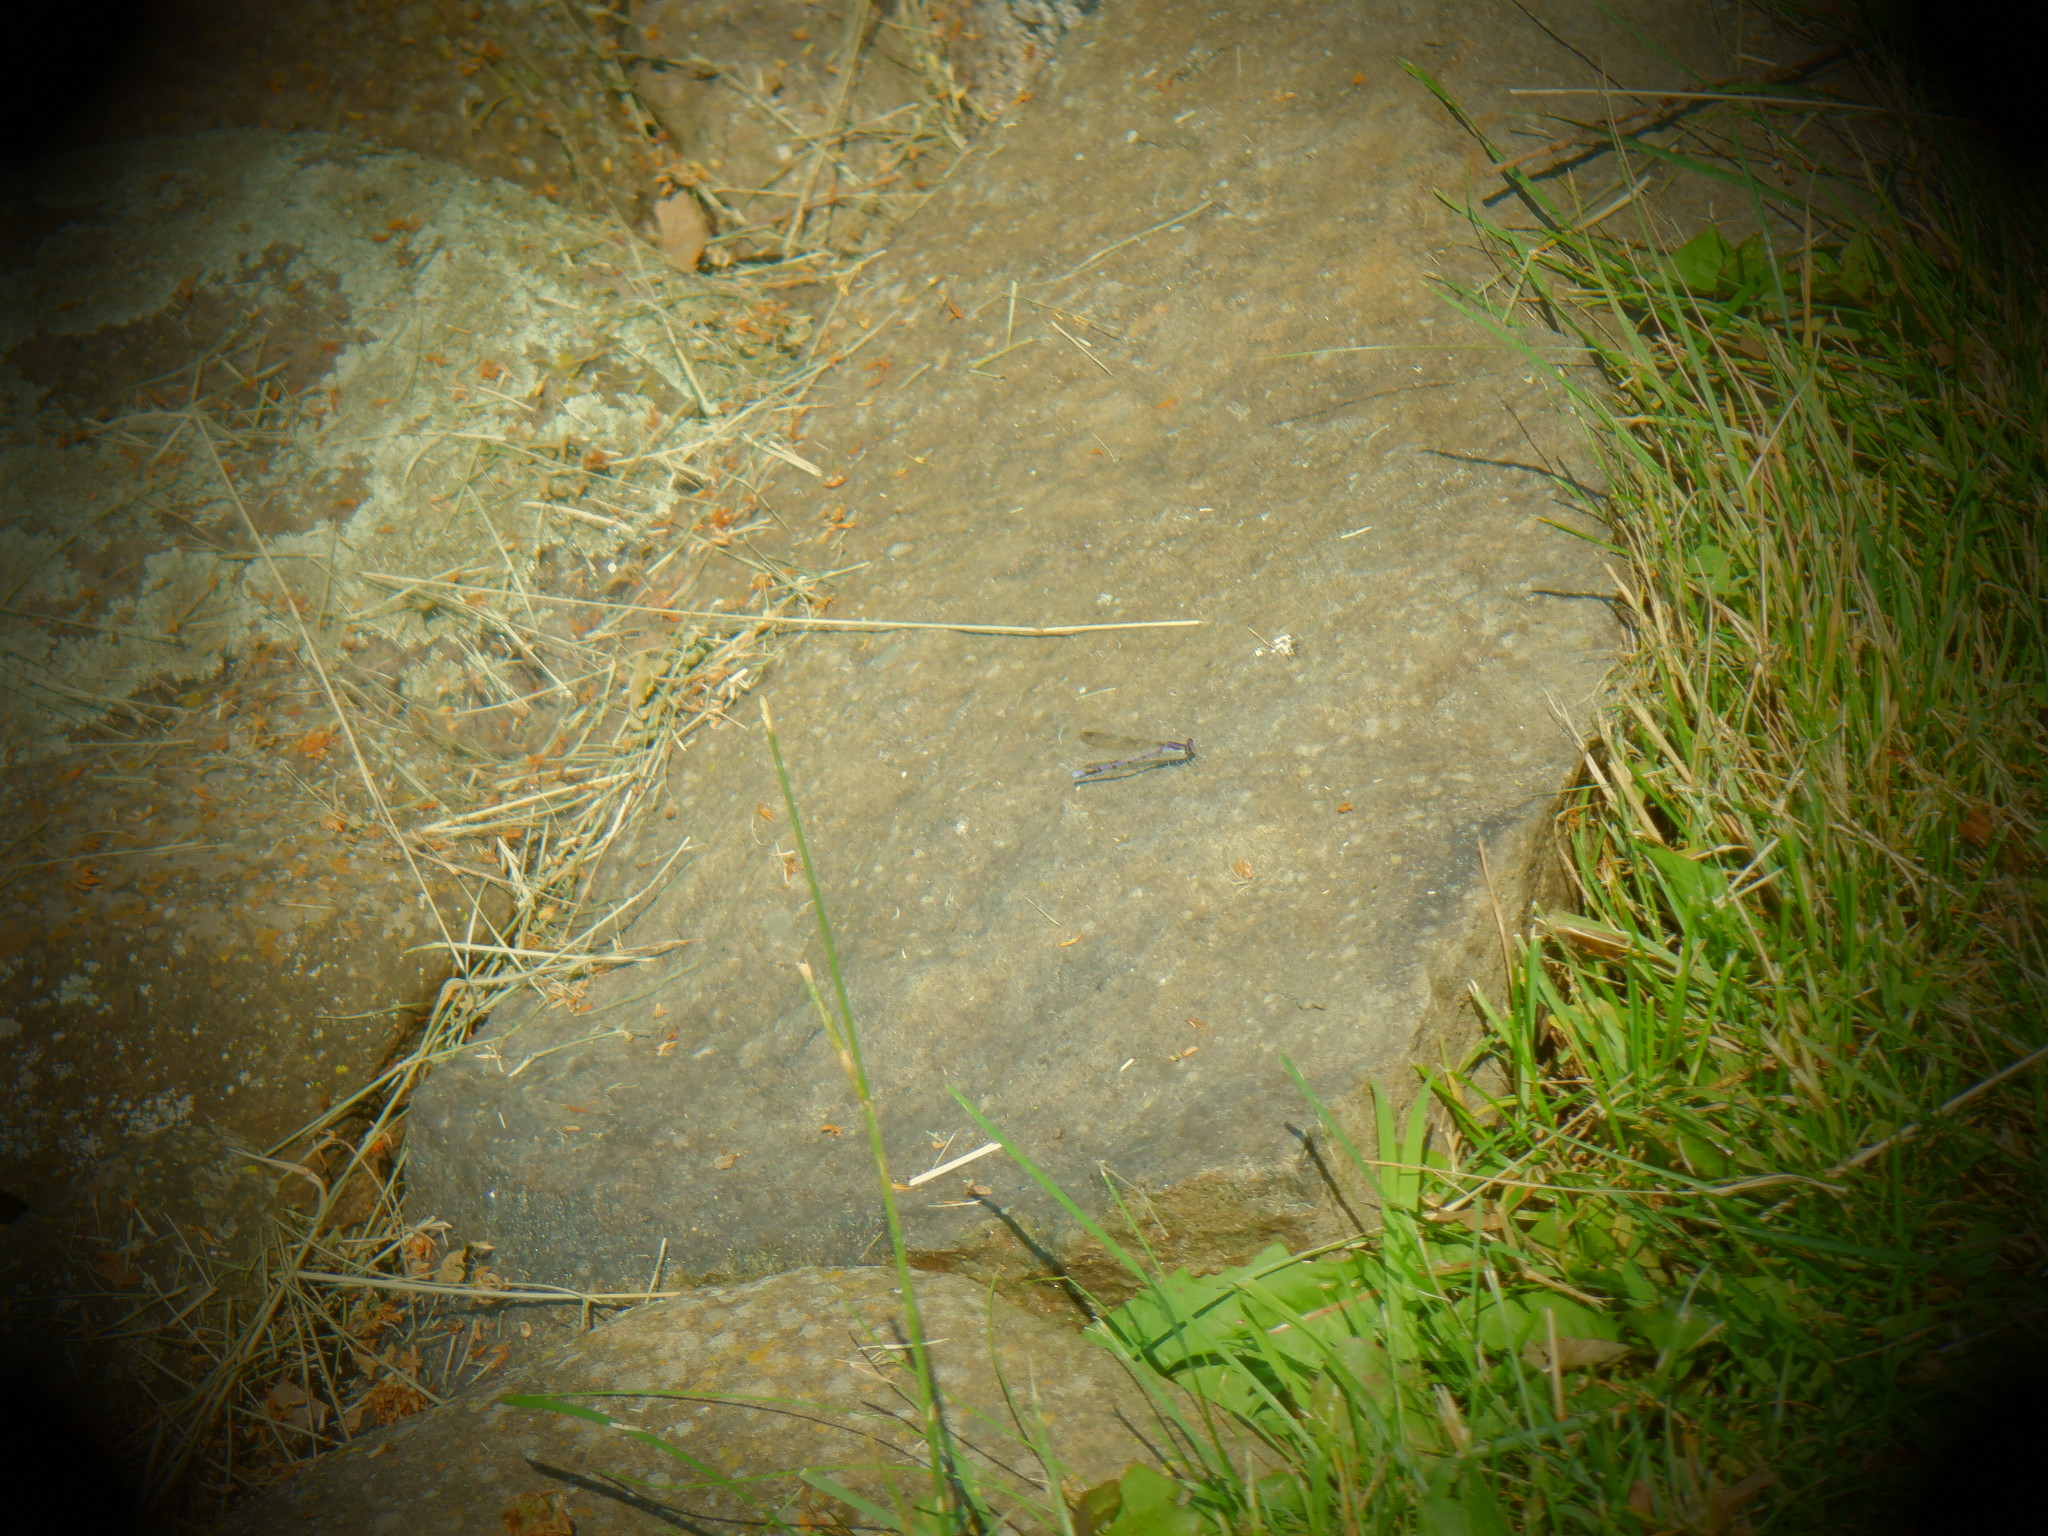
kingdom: Animalia
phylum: Arthropoda
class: Insecta
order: Odonata
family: Coenagrionidae
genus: Argia
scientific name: Argia fumipennis
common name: Variable dancer
